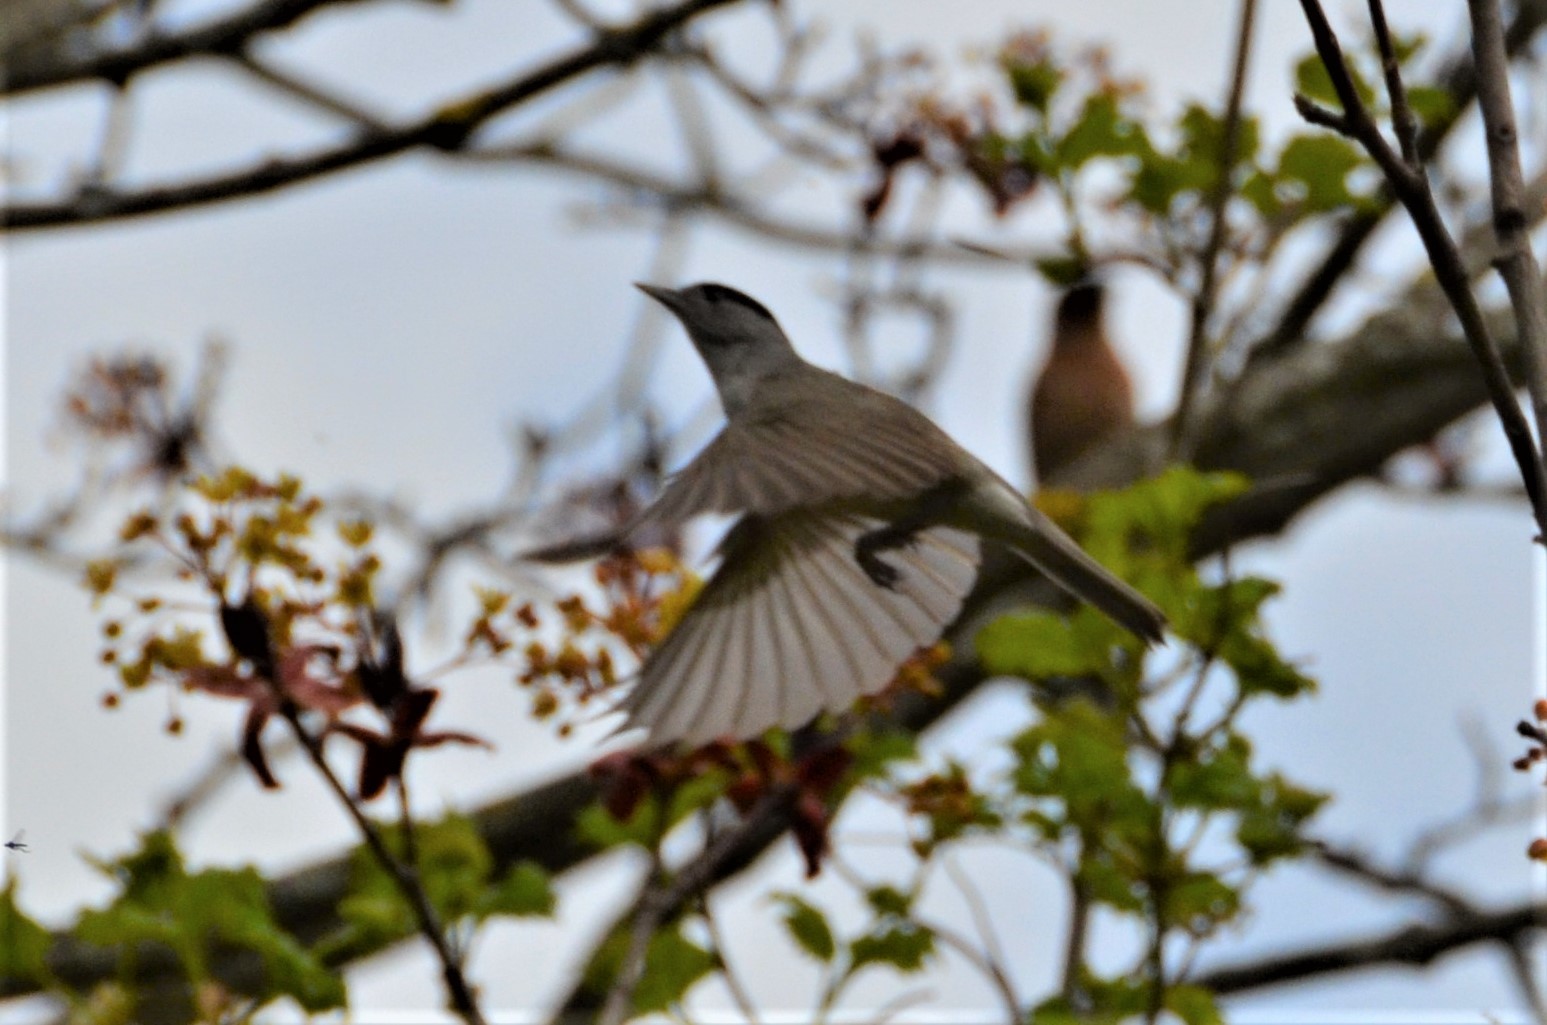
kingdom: Animalia
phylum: Chordata
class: Aves
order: Passeriformes
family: Sylviidae
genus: Sylvia
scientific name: Sylvia atricapilla
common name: Eurasian blackcap
